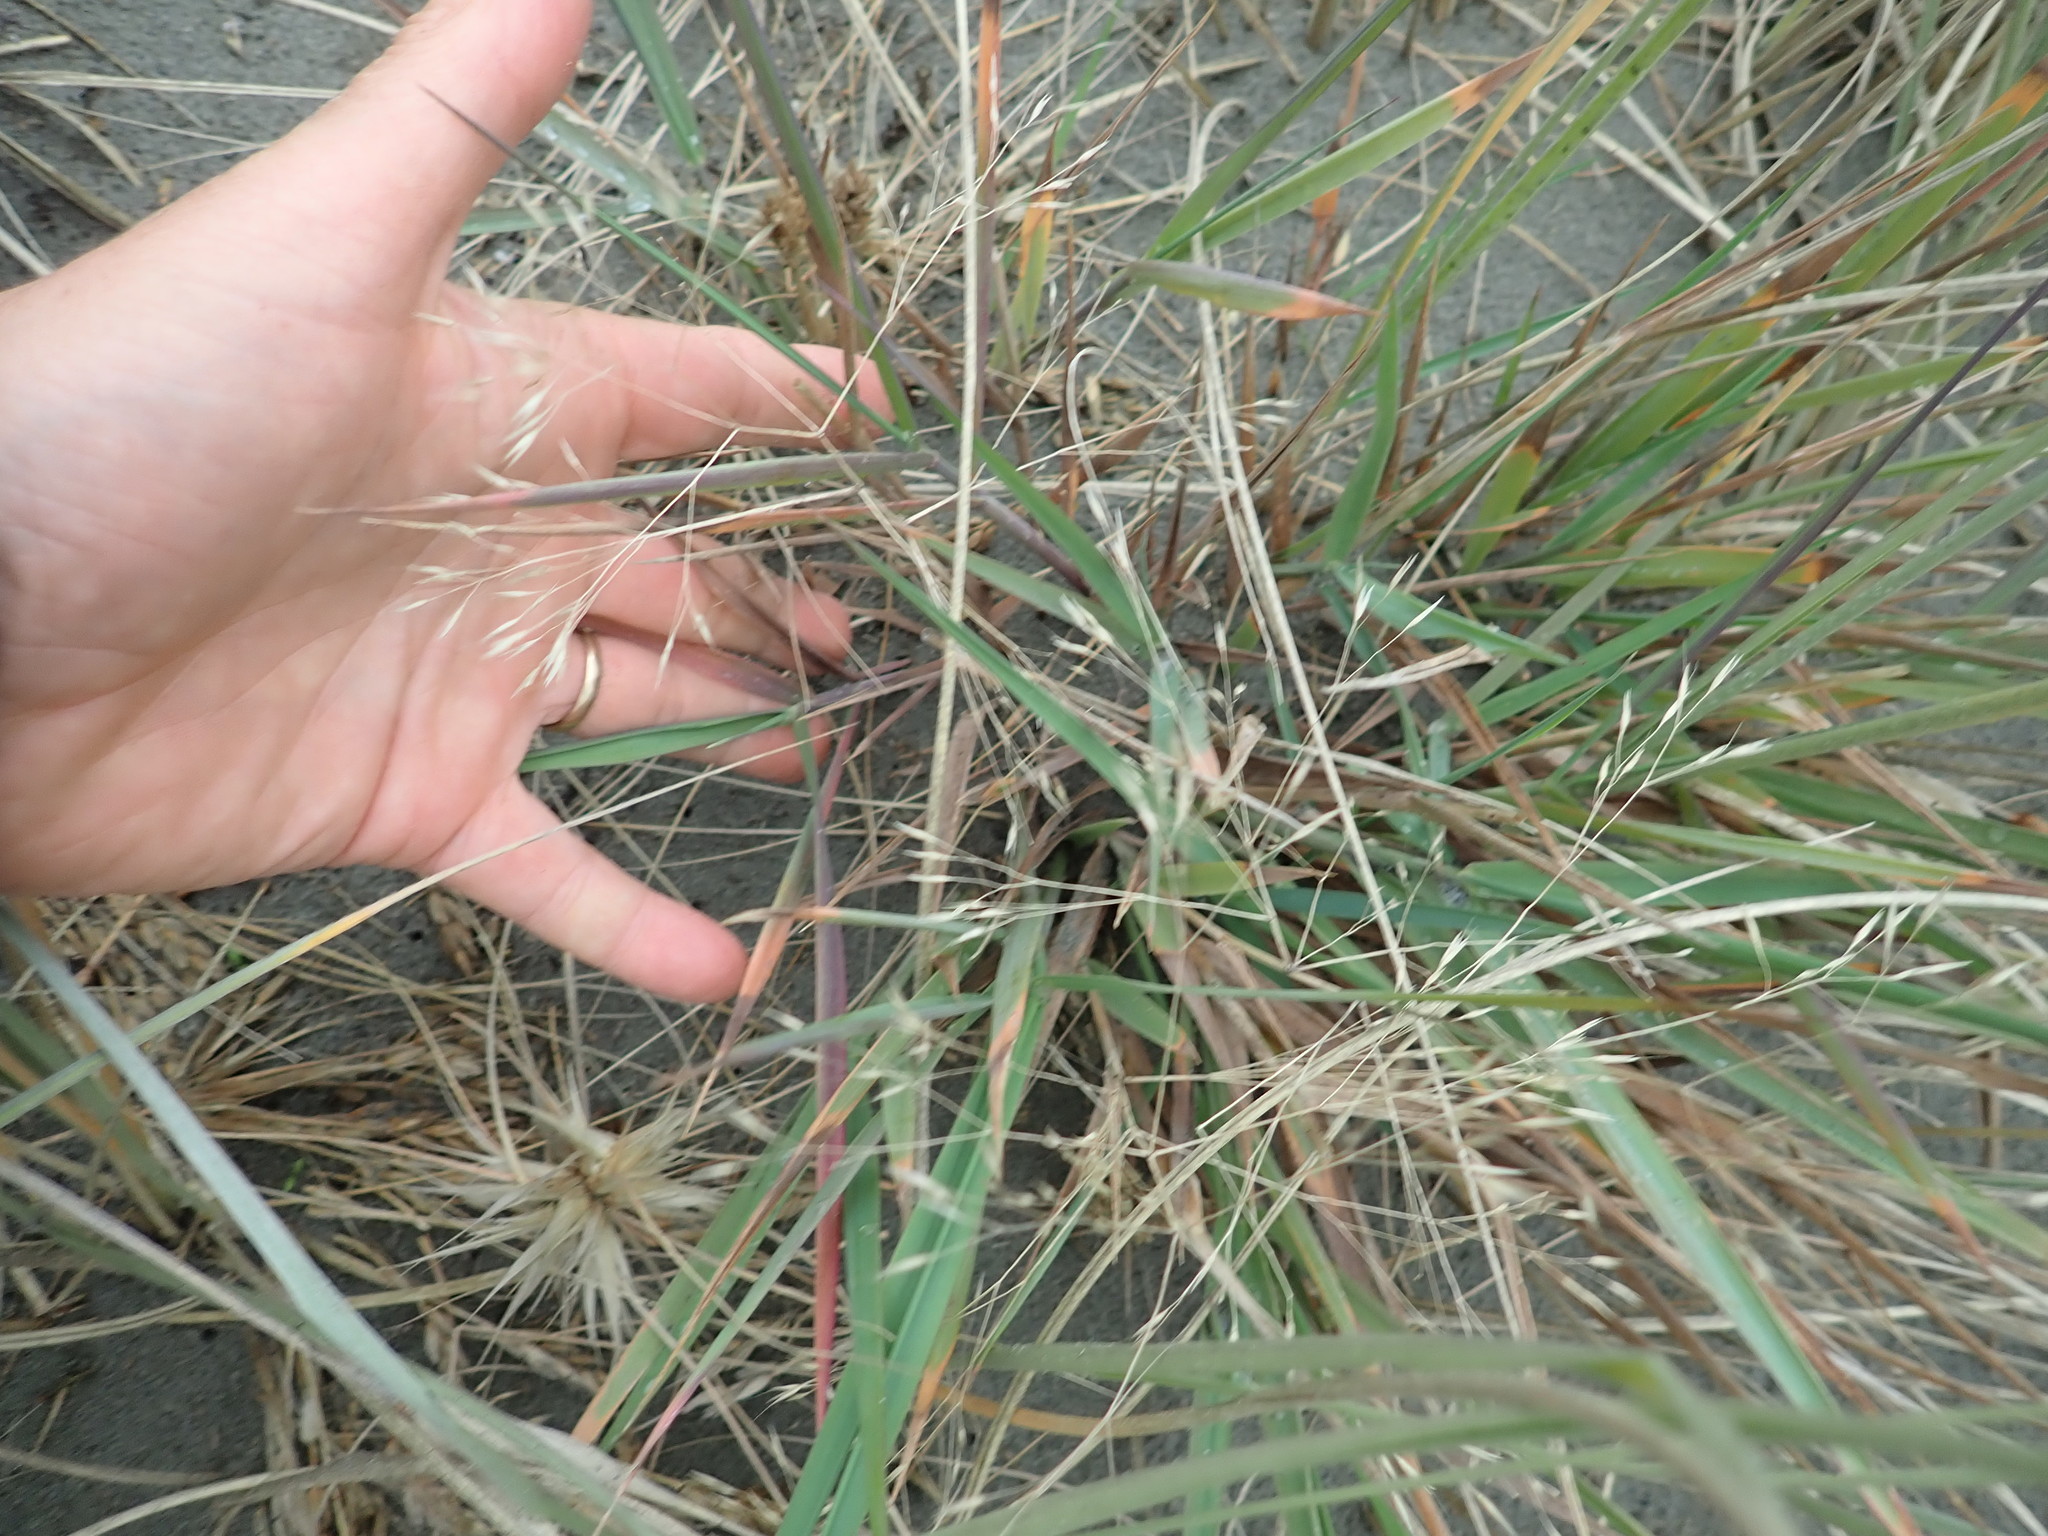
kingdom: Plantae
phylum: Tracheophyta
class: Liliopsida
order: Poales
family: Poaceae
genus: Lachnagrostis
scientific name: Lachnagrostis billardierei
